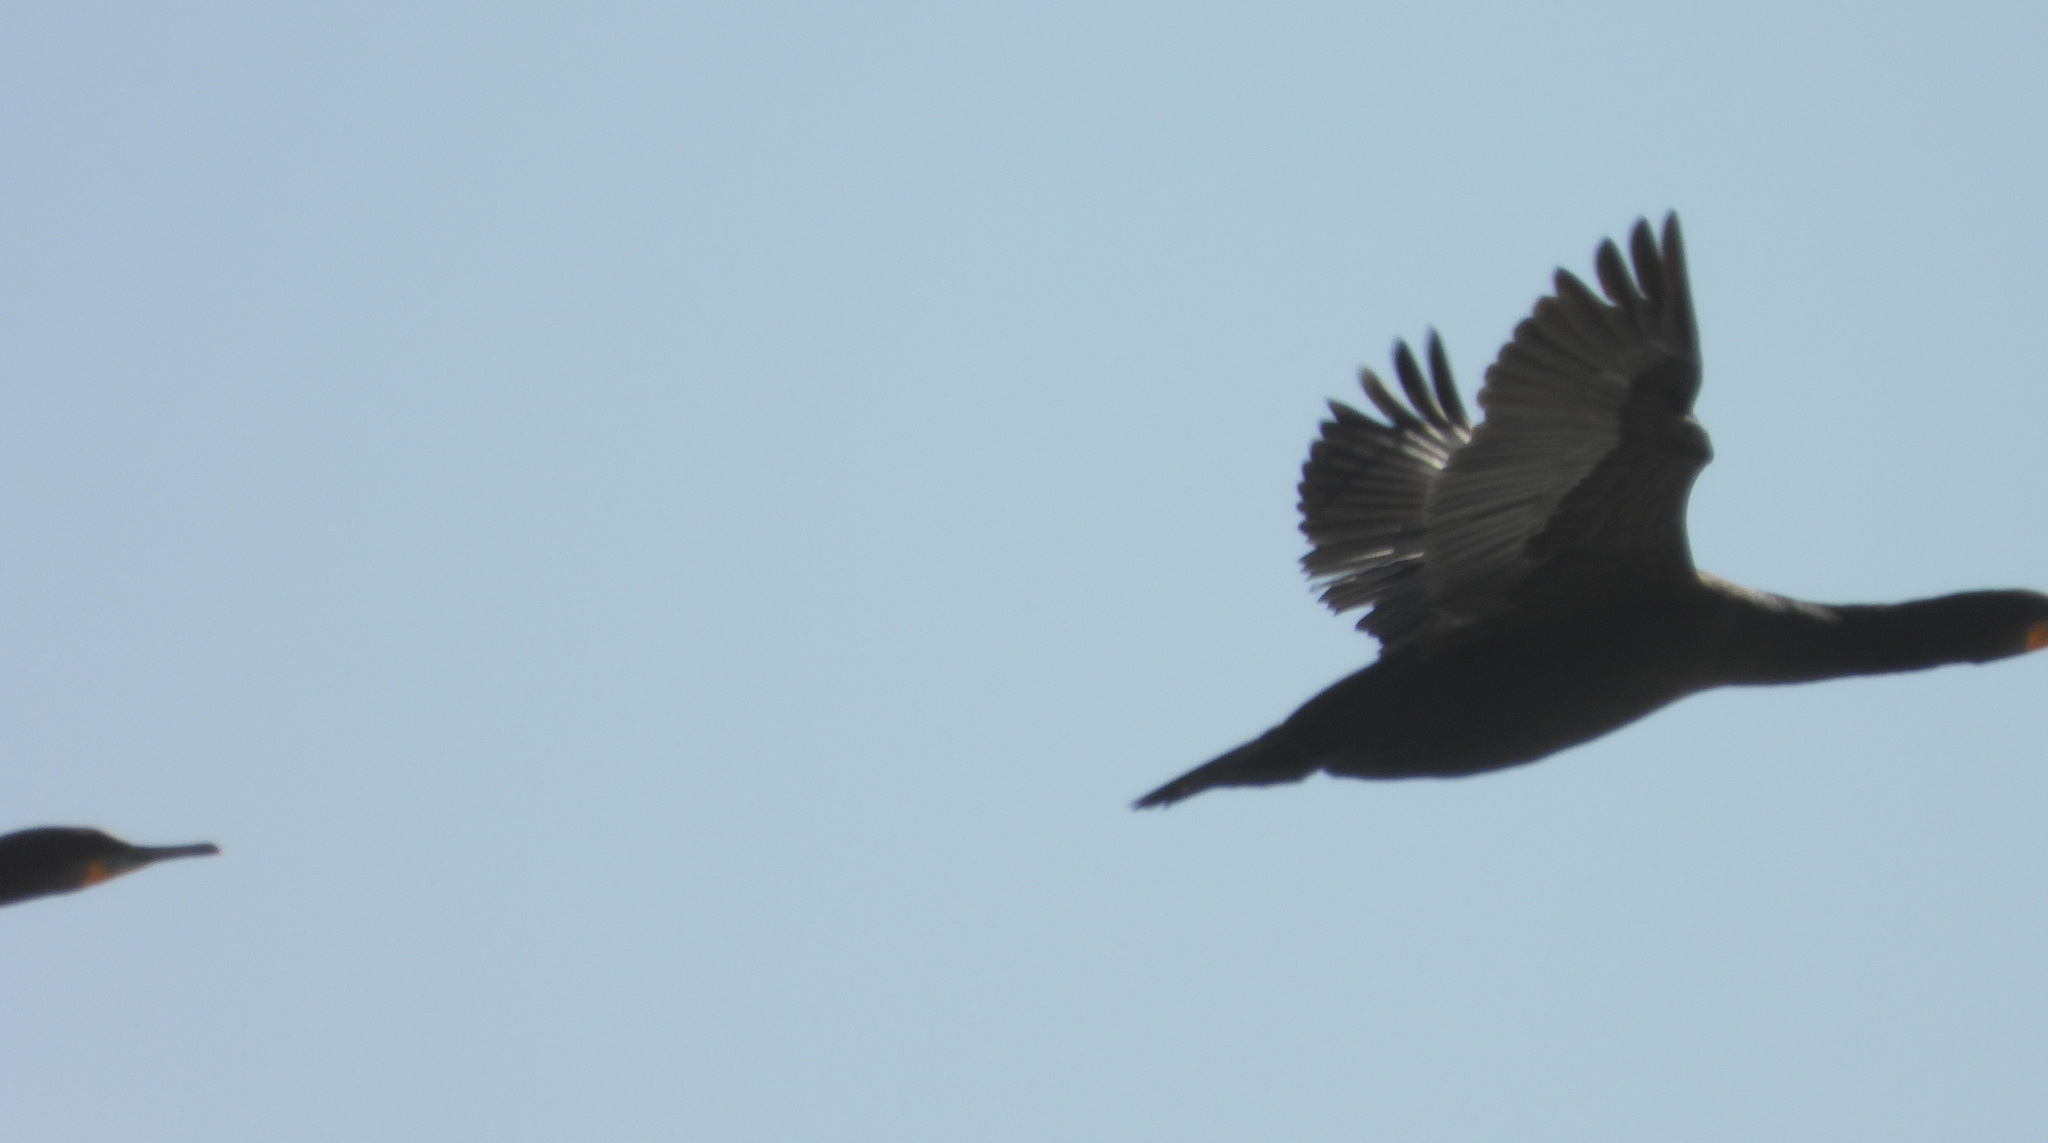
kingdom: Animalia
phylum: Chordata
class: Aves
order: Suliformes
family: Phalacrocoracidae
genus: Phalacrocorax
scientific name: Phalacrocorax capensis
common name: Cape cormorant
